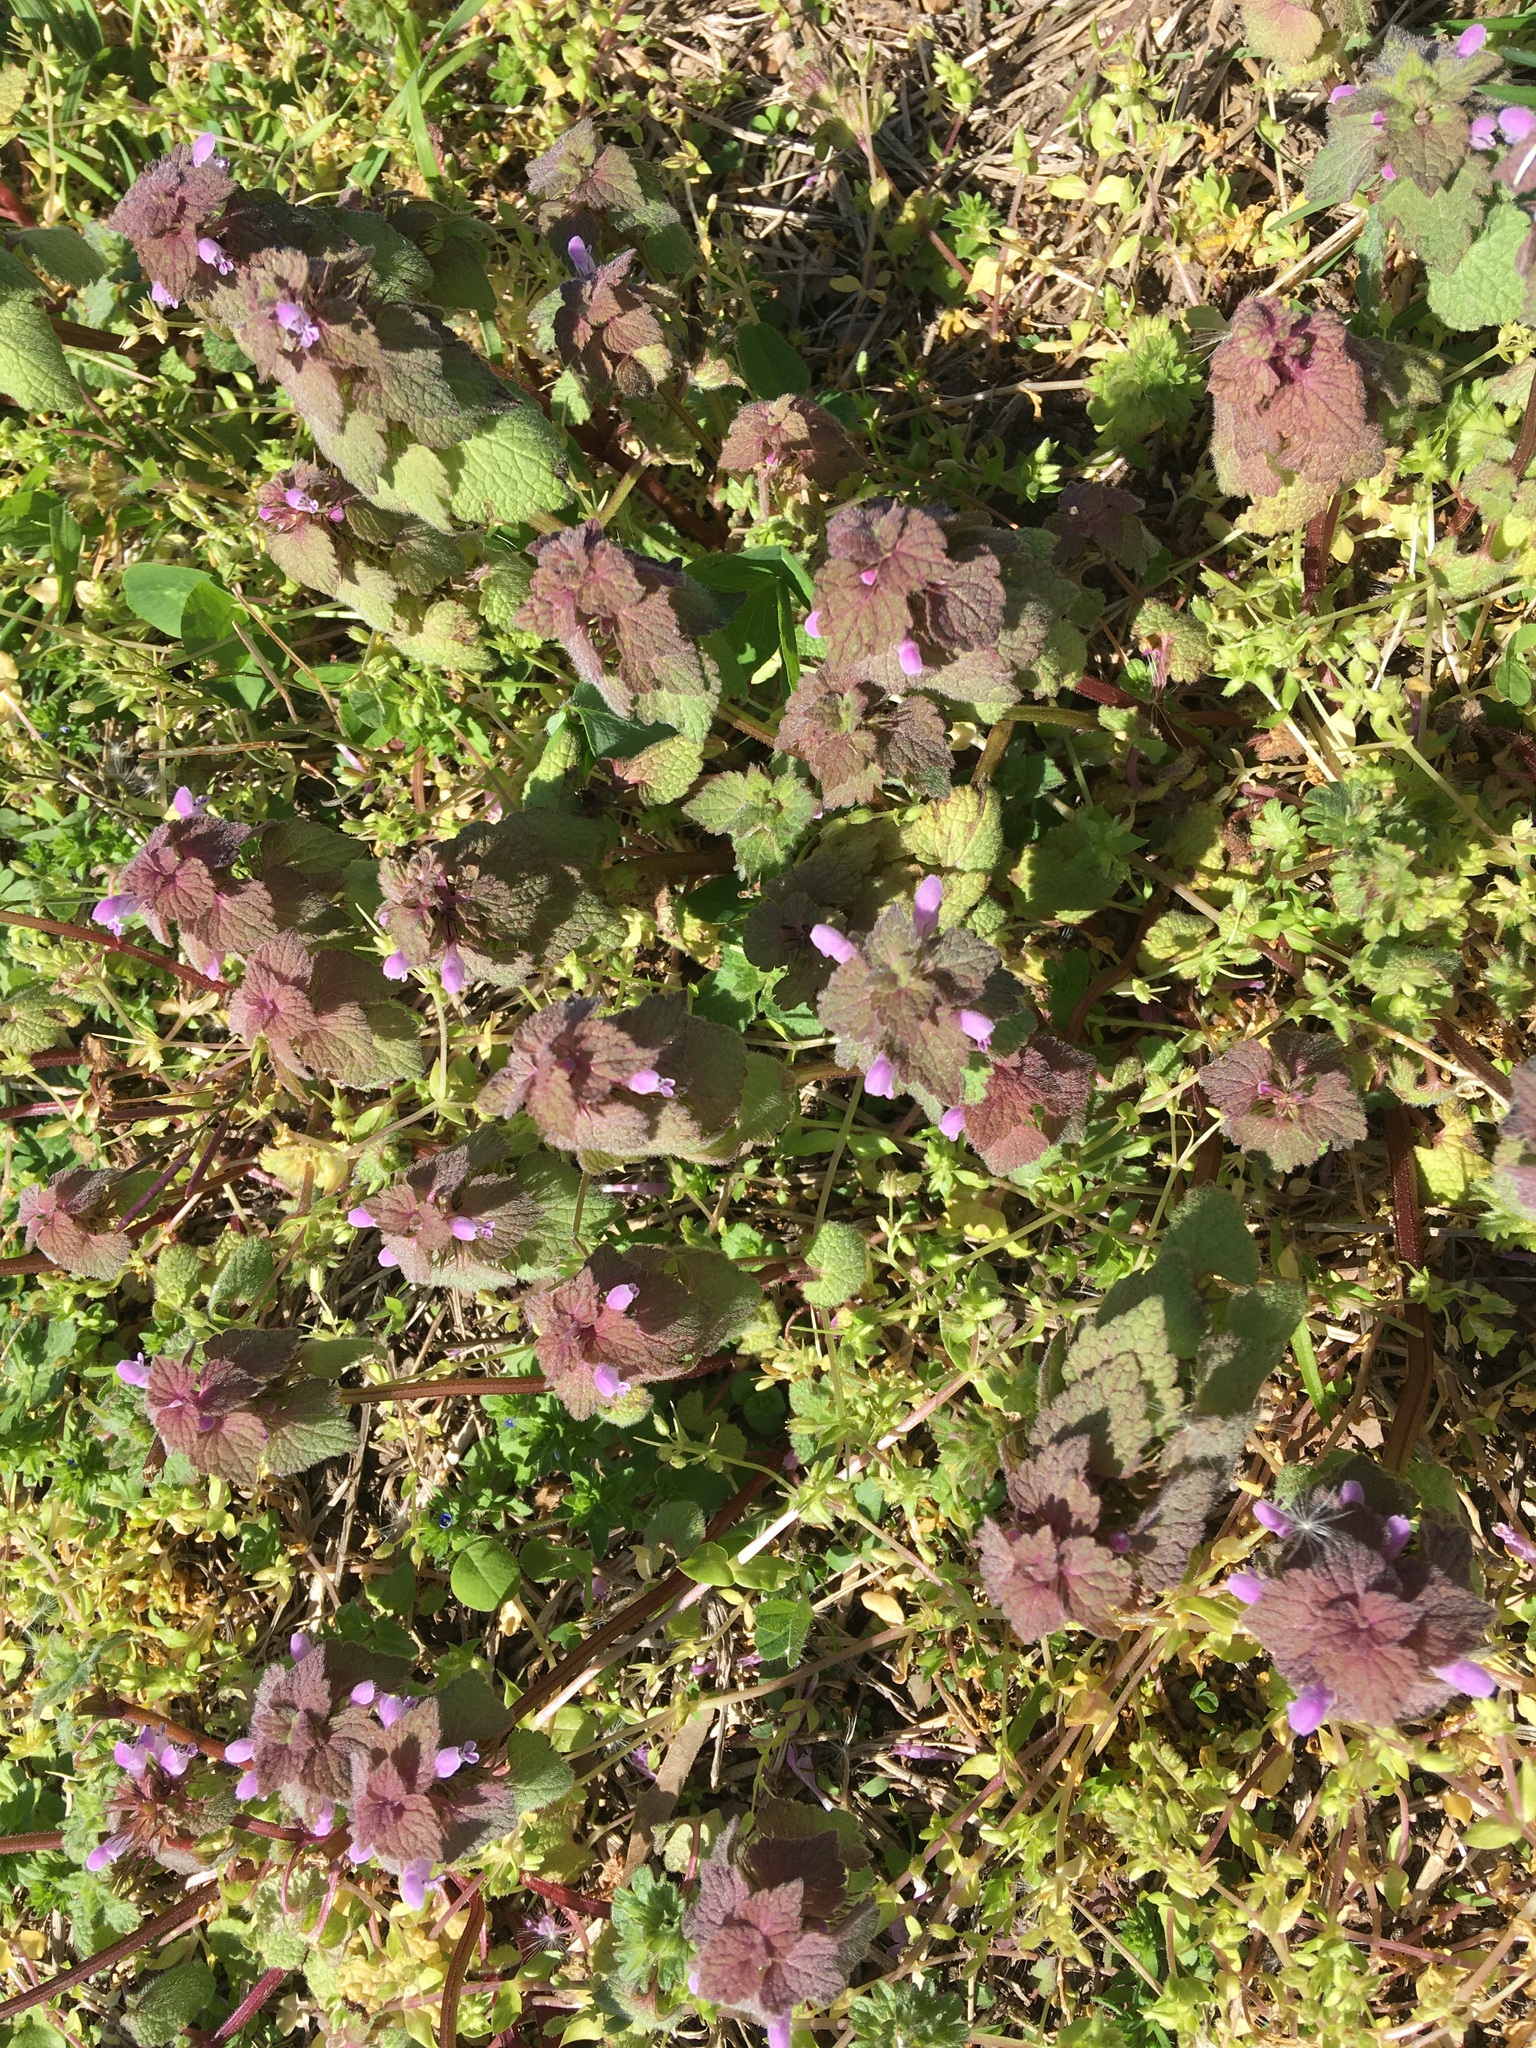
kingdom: Plantae
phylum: Tracheophyta
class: Magnoliopsida
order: Lamiales
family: Lamiaceae
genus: Lamium
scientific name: Lamium purpureum
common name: Red dead-nettle
